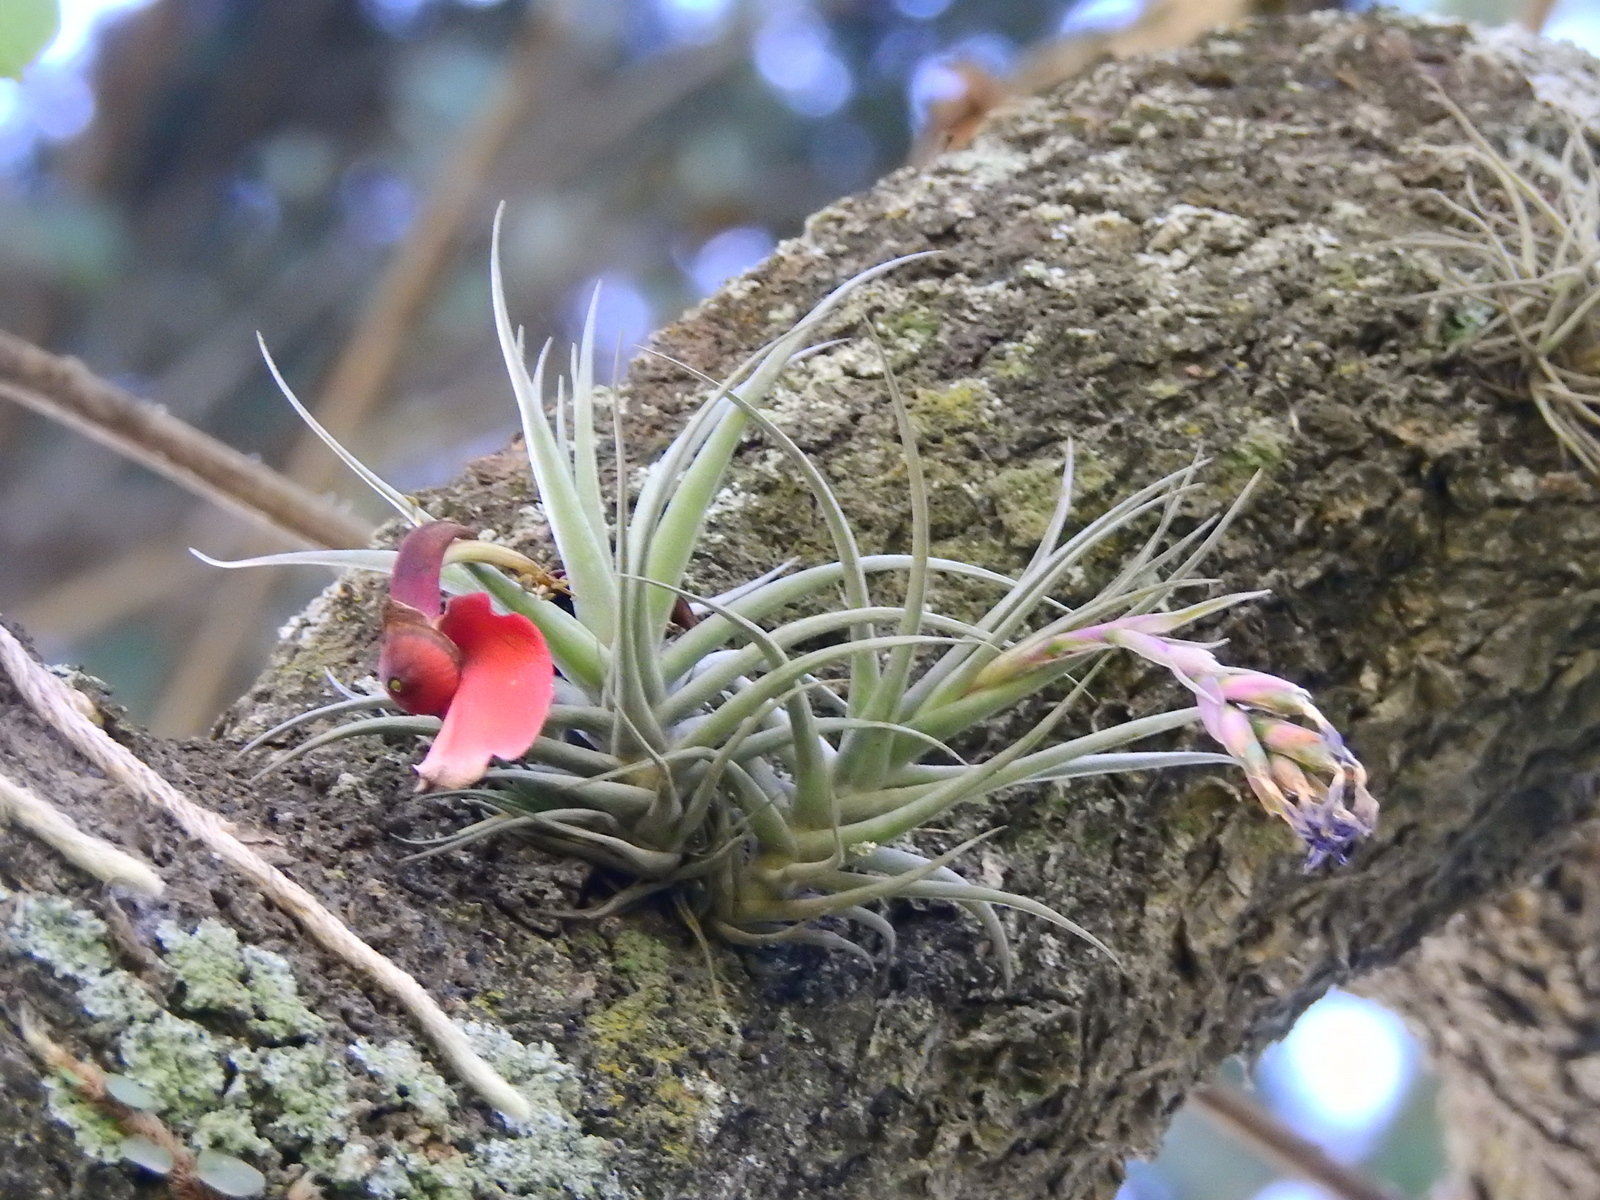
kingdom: Plantae
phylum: Tracheophyta
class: Liliopsida
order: Poales
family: Bromeliaceae
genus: Tillandsia
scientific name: Tillandsia aeranthos
